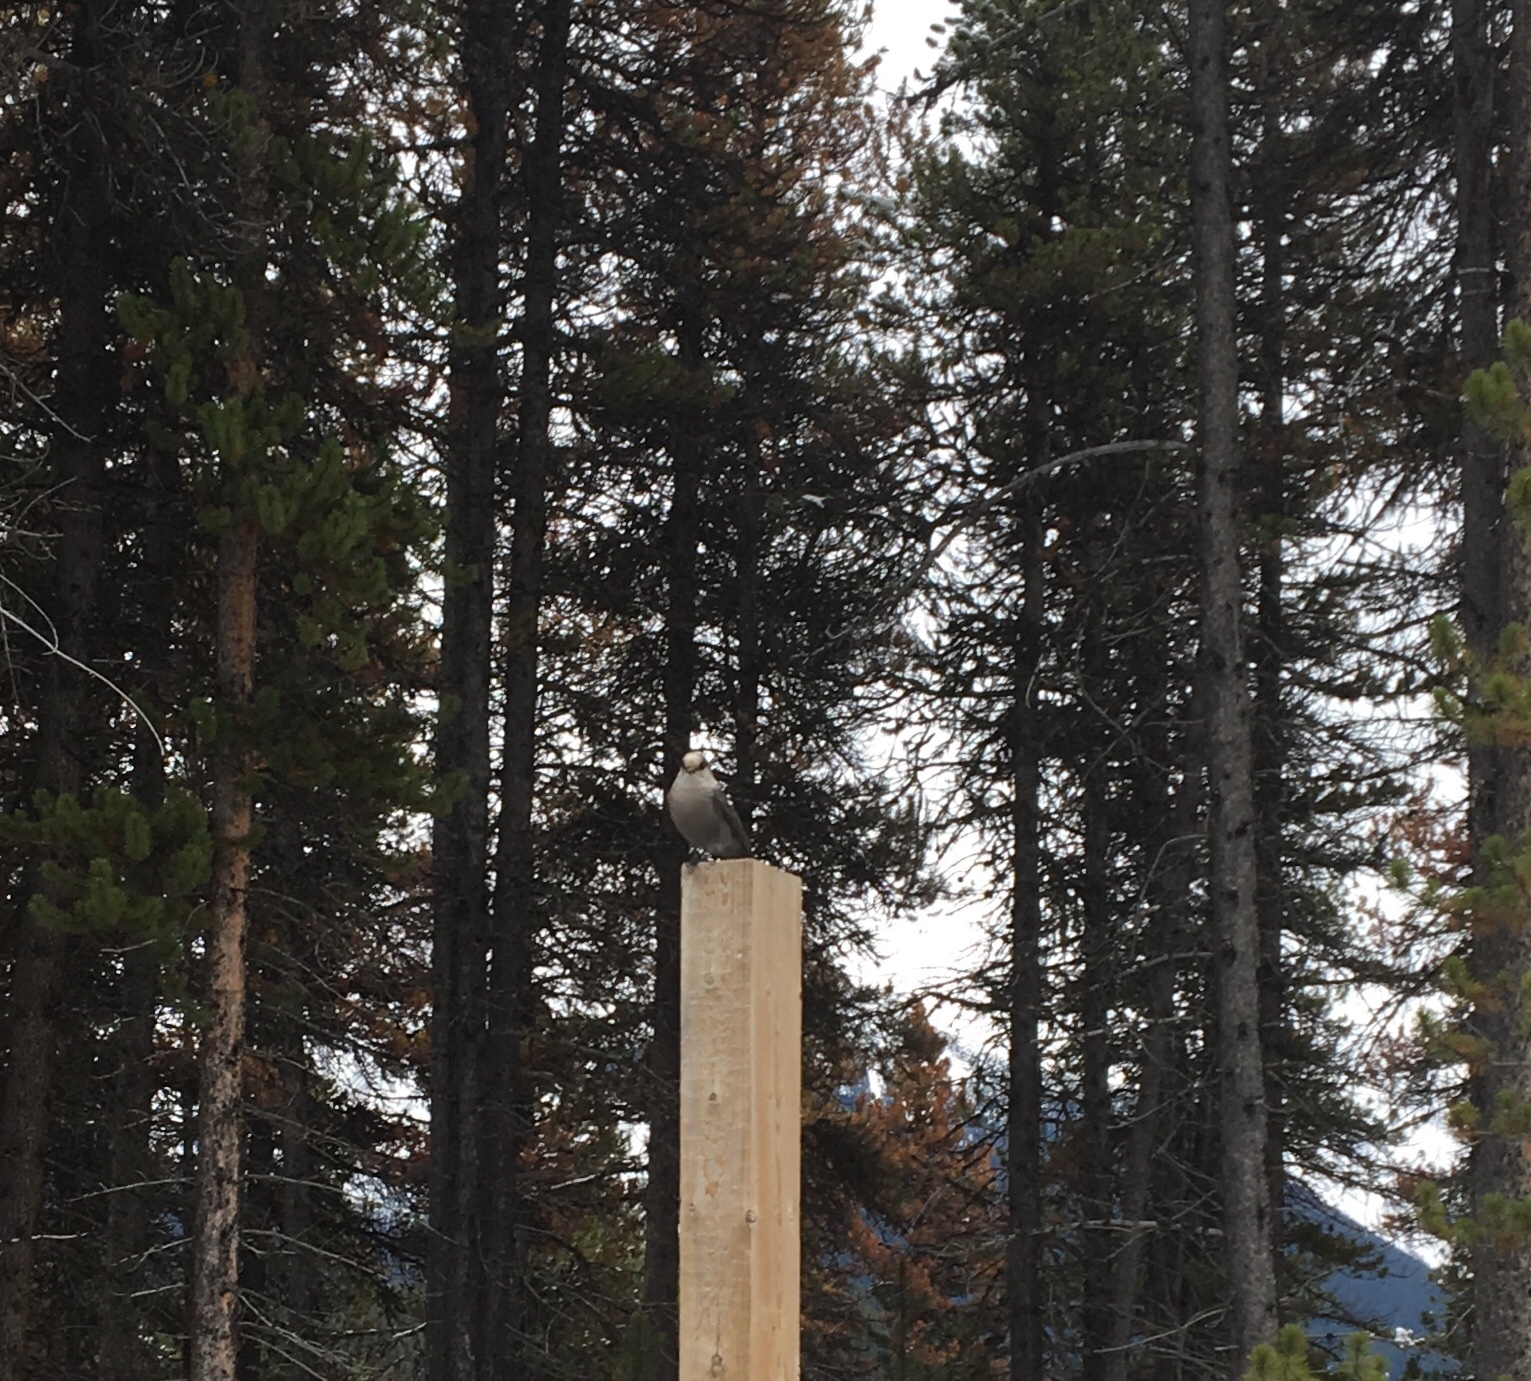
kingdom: Animalia
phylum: Chordata
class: Aves
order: Passeriformes
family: Corvidae
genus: Perisoreus
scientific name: Perisoreus canadensis
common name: Gray jay
